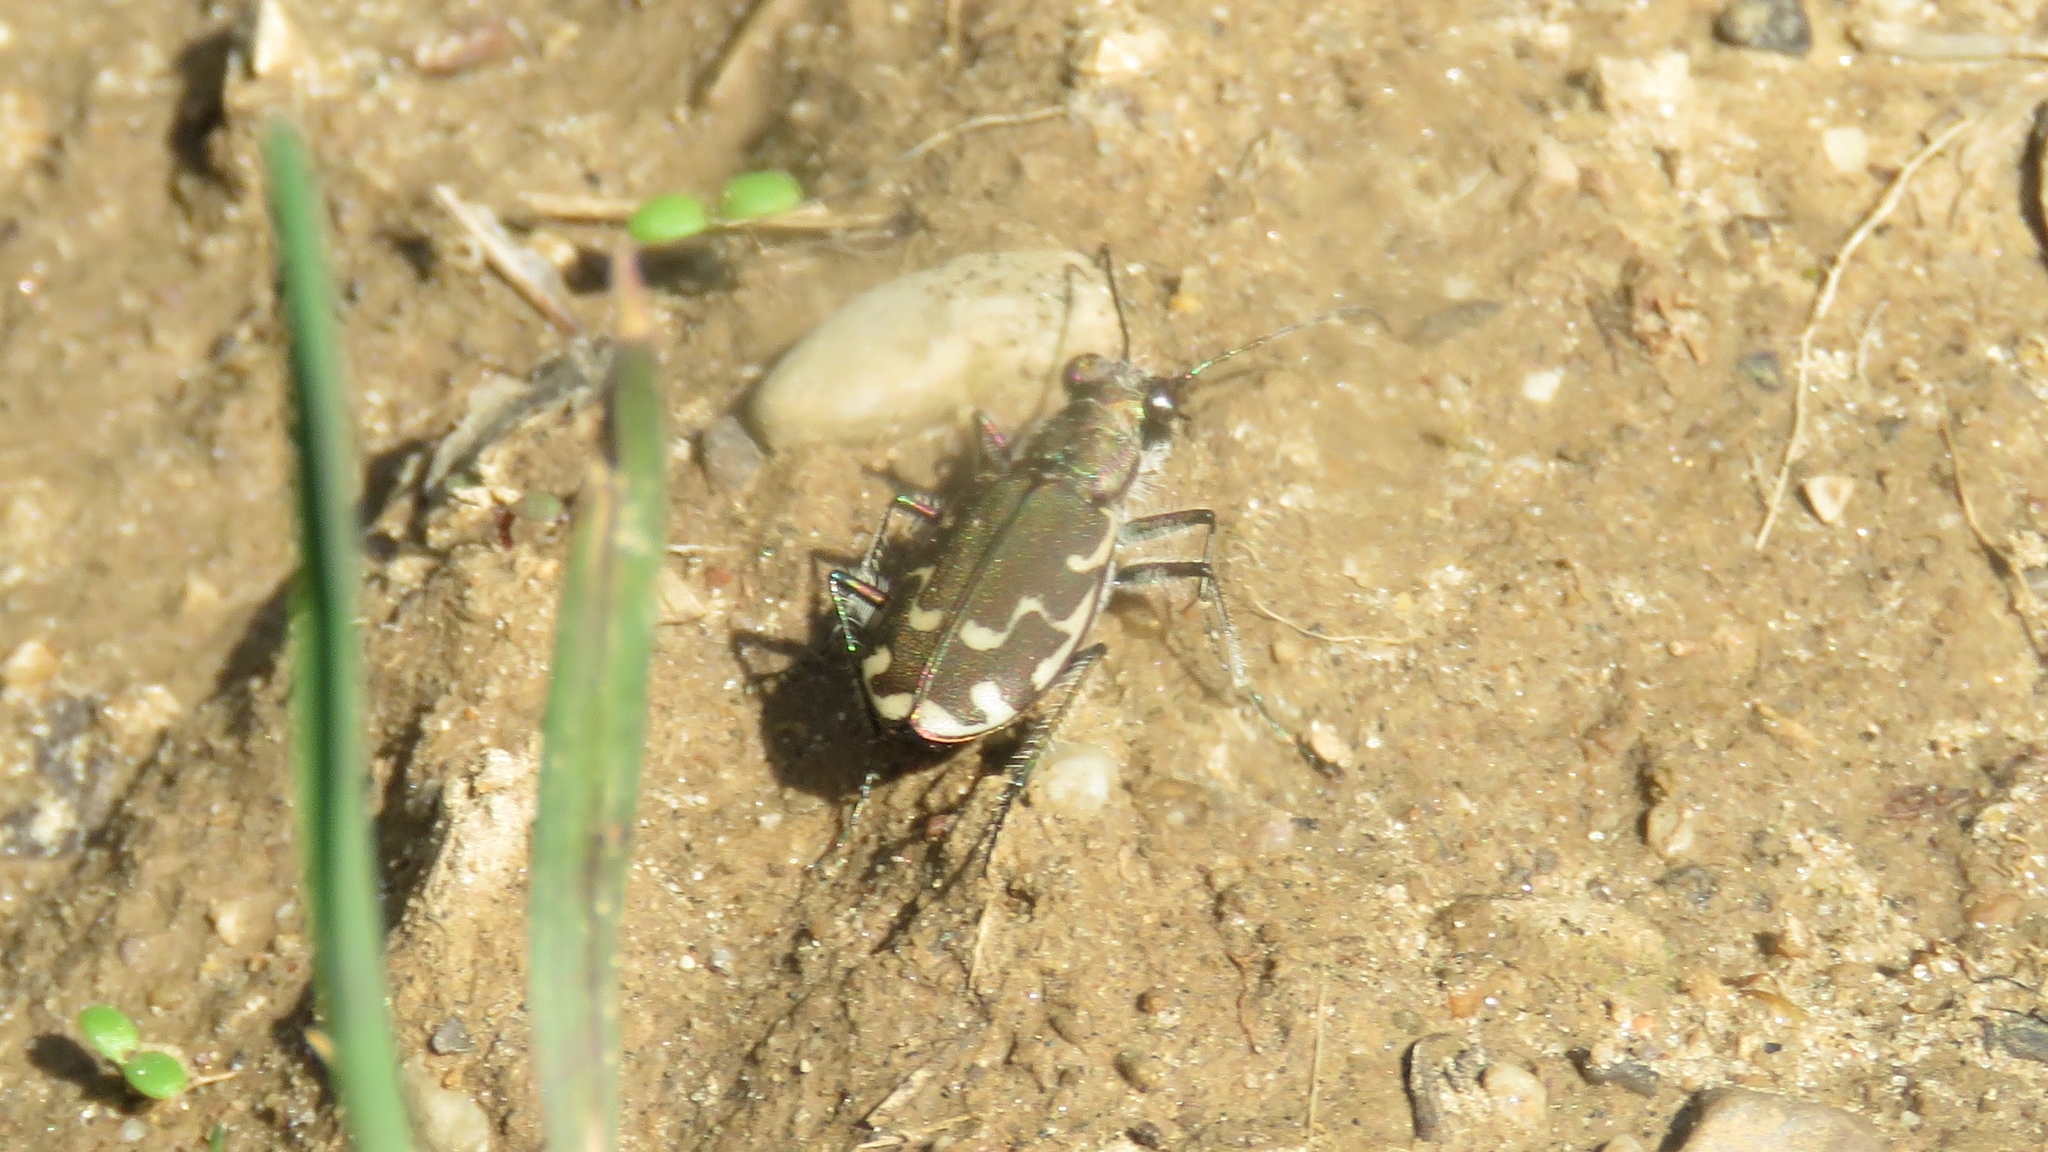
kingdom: Animalia
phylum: Arthropoda
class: Insecta
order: Coleoptera
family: Carabidae
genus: Cicindela
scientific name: Cicindela repanda
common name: Bronzed tiger beetle
